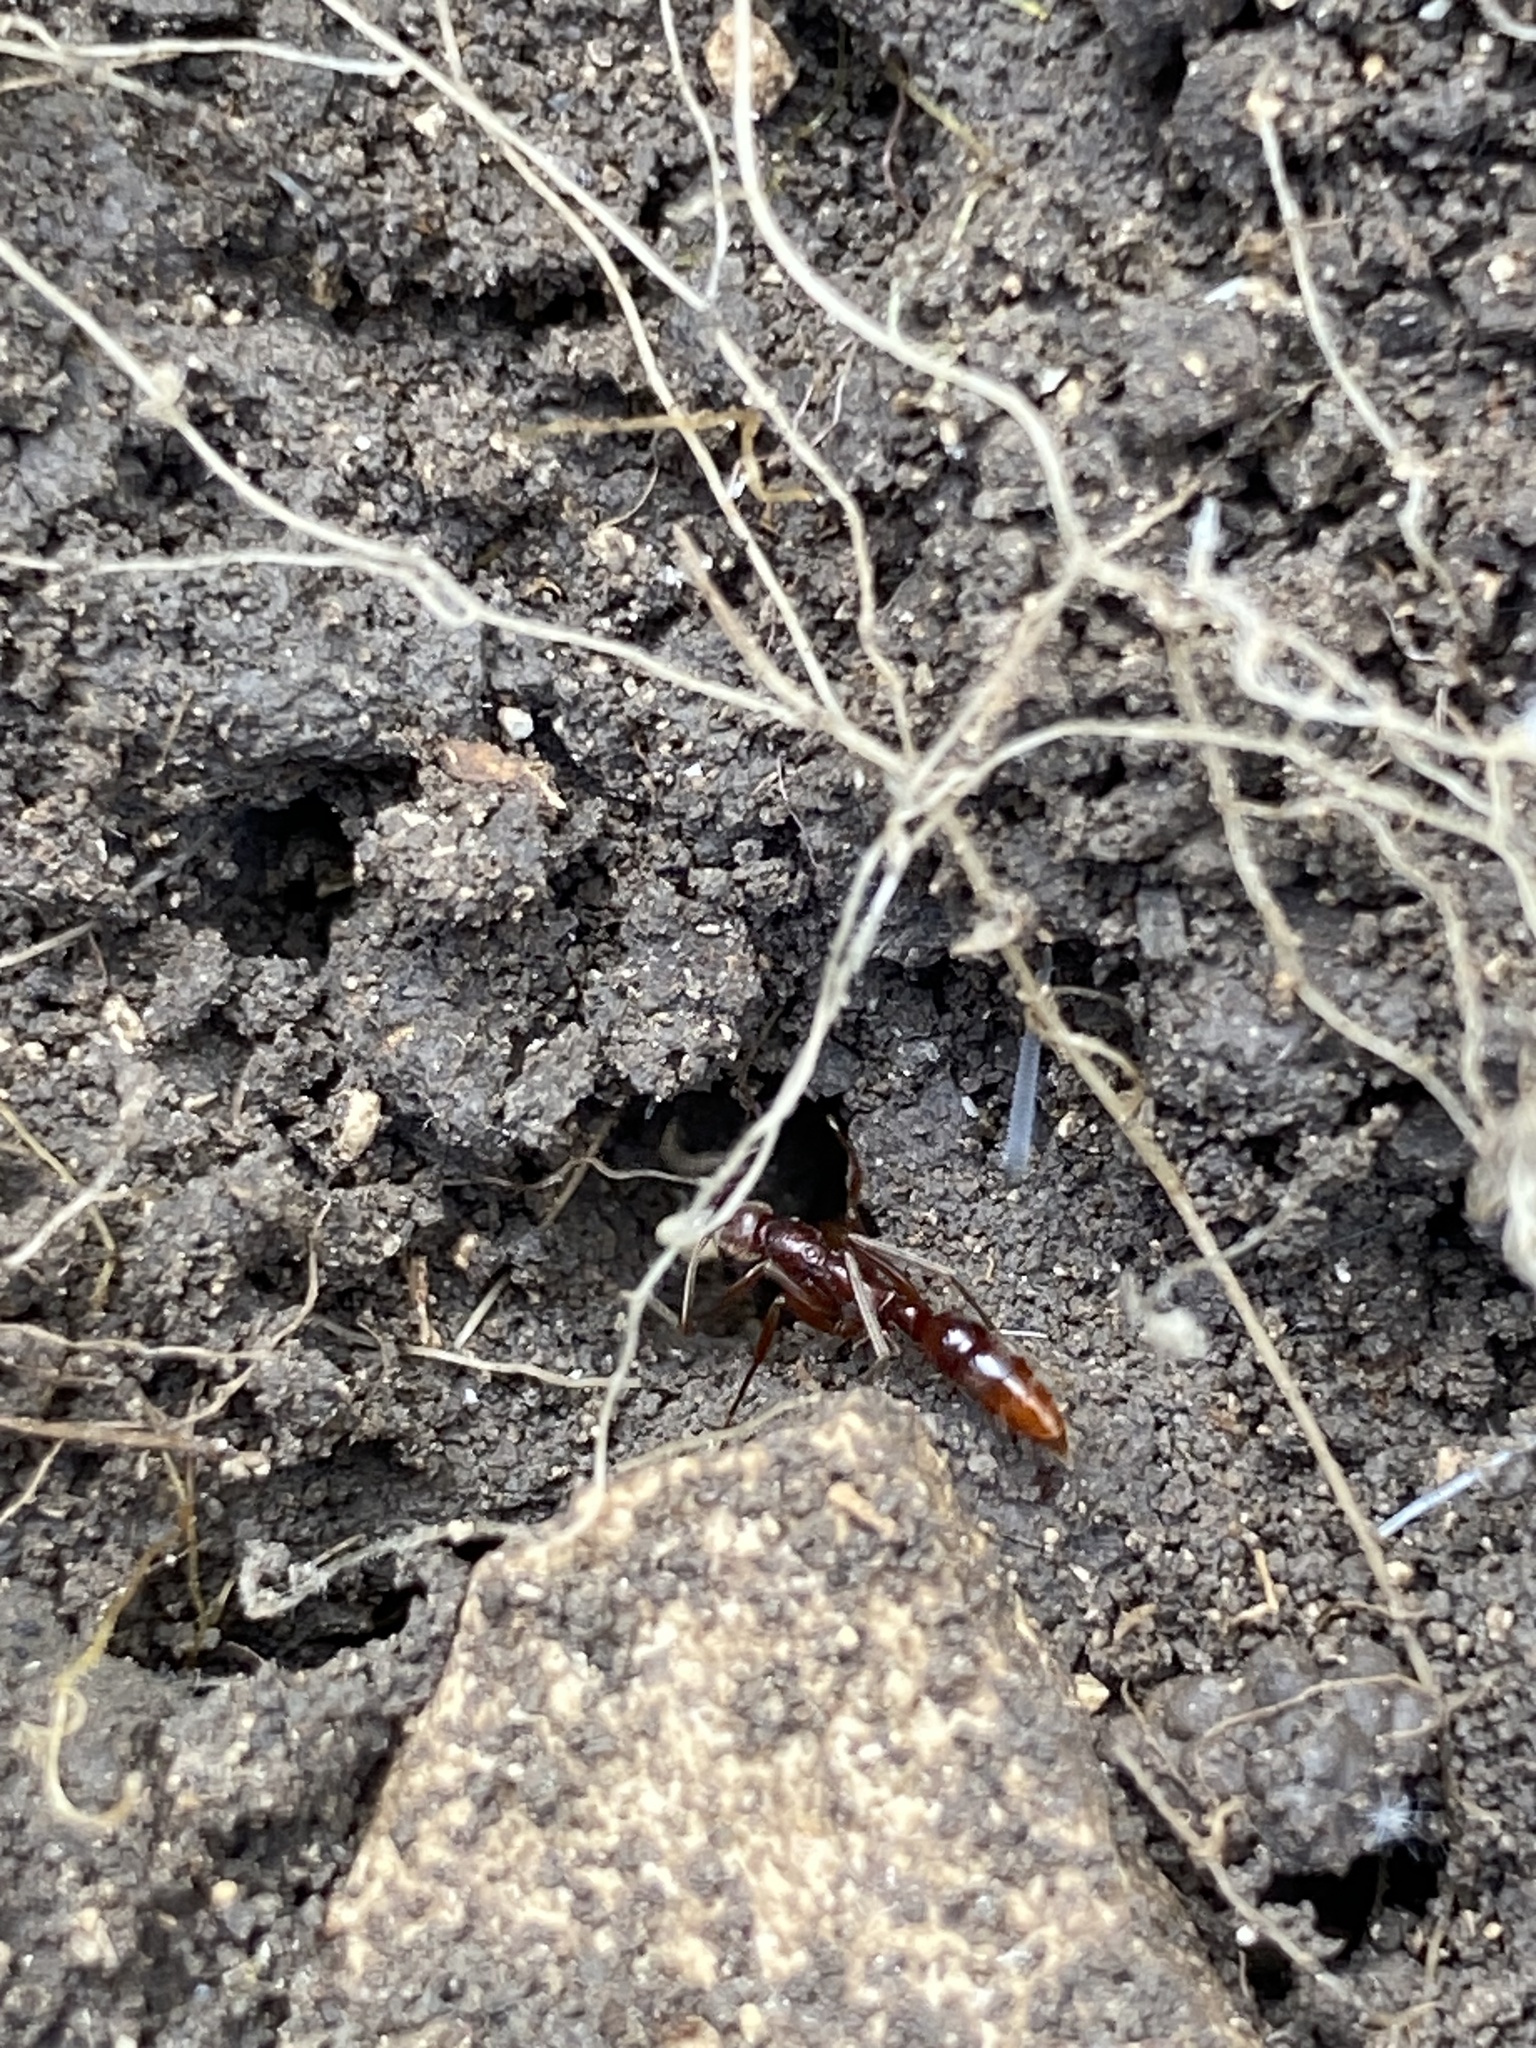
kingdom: Animalia
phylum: Arthropoda
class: Insecta
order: Hymenoptera
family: Formicidae
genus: Leptogenys
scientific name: Leptogenys elongata
